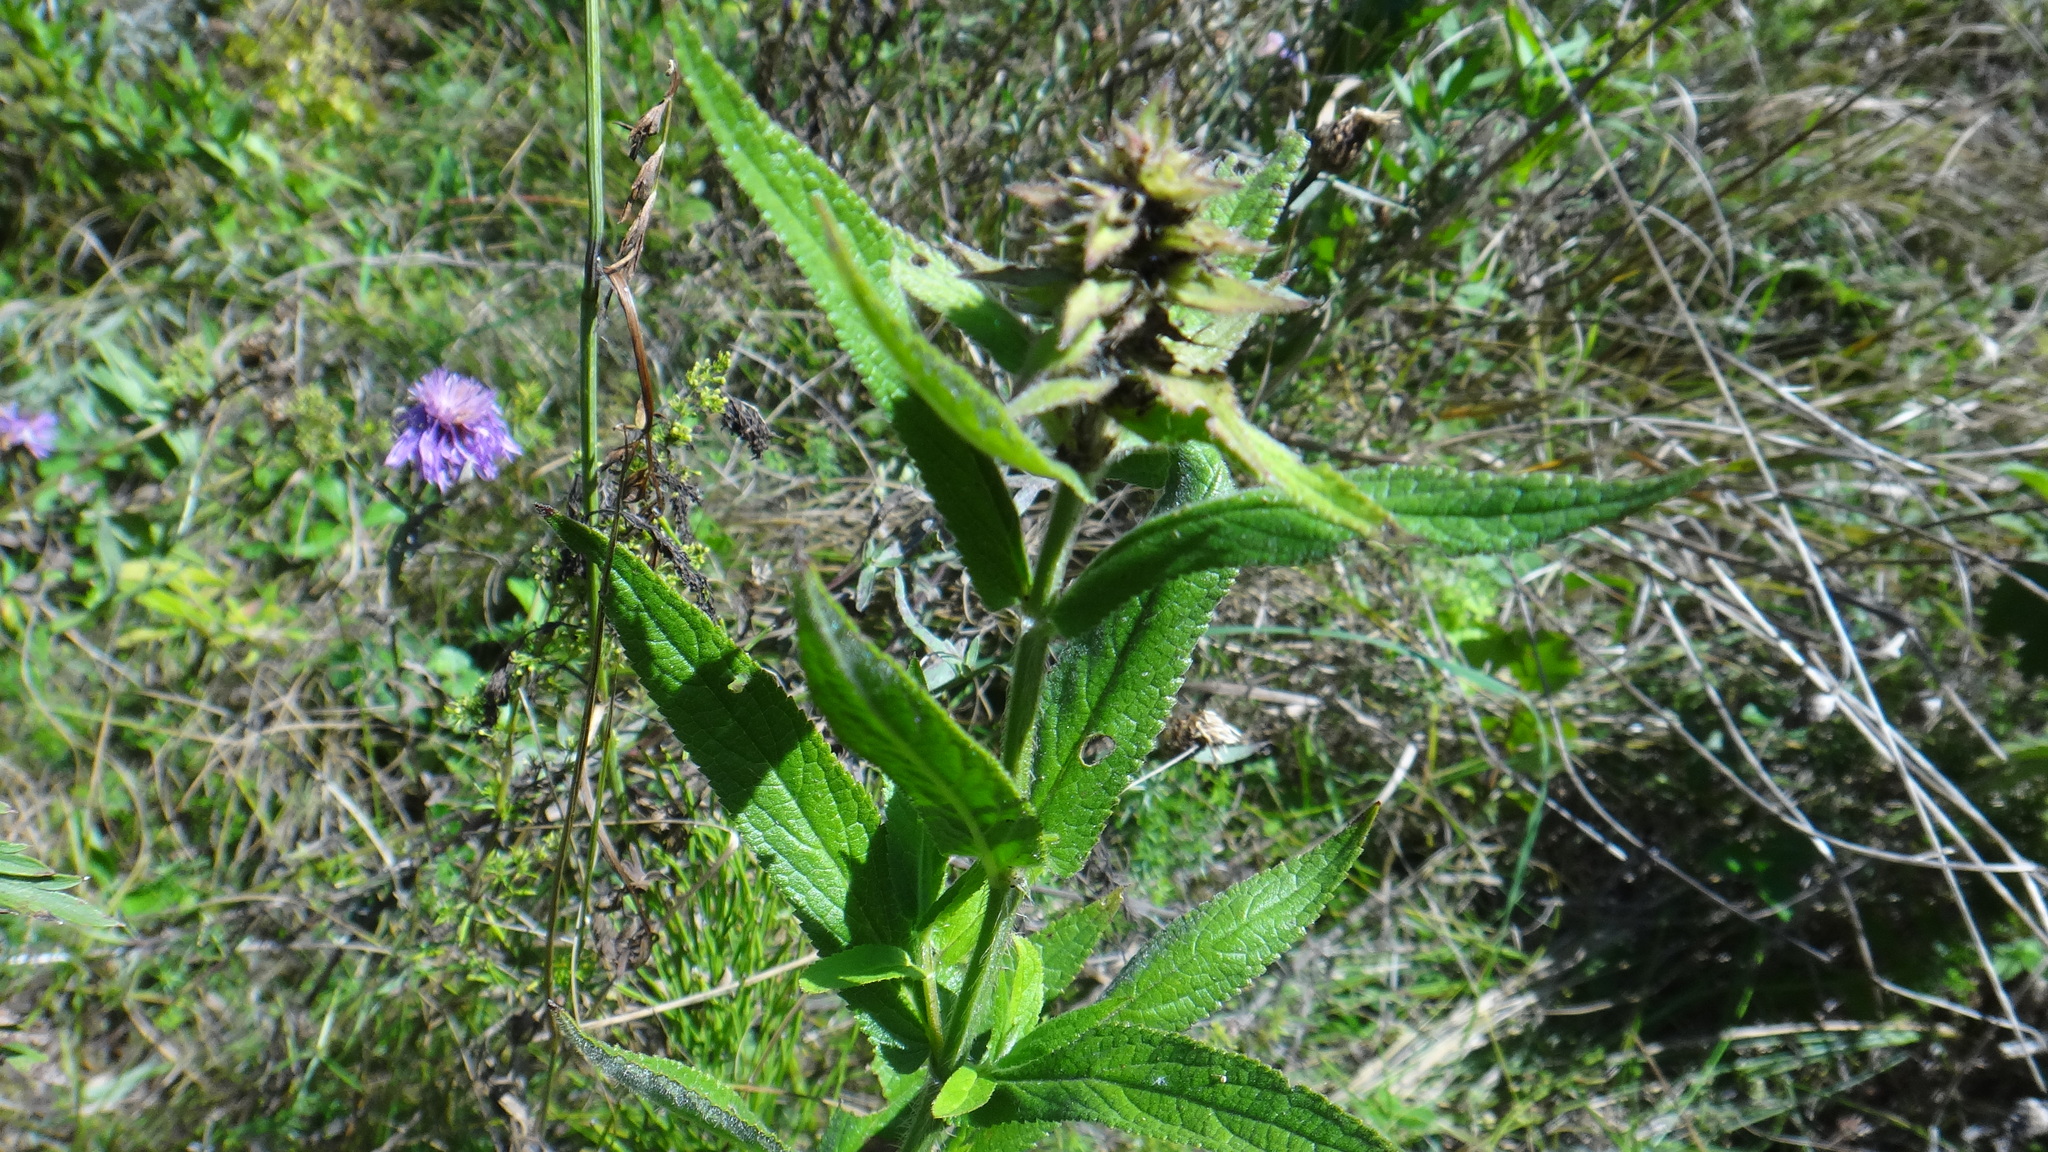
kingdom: Plantae
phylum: Tracheophyta
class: Magnoliopsida
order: Lamiales
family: Lamiaceae
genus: Stachys
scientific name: Stachys palustris
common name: Marsh woundwort
